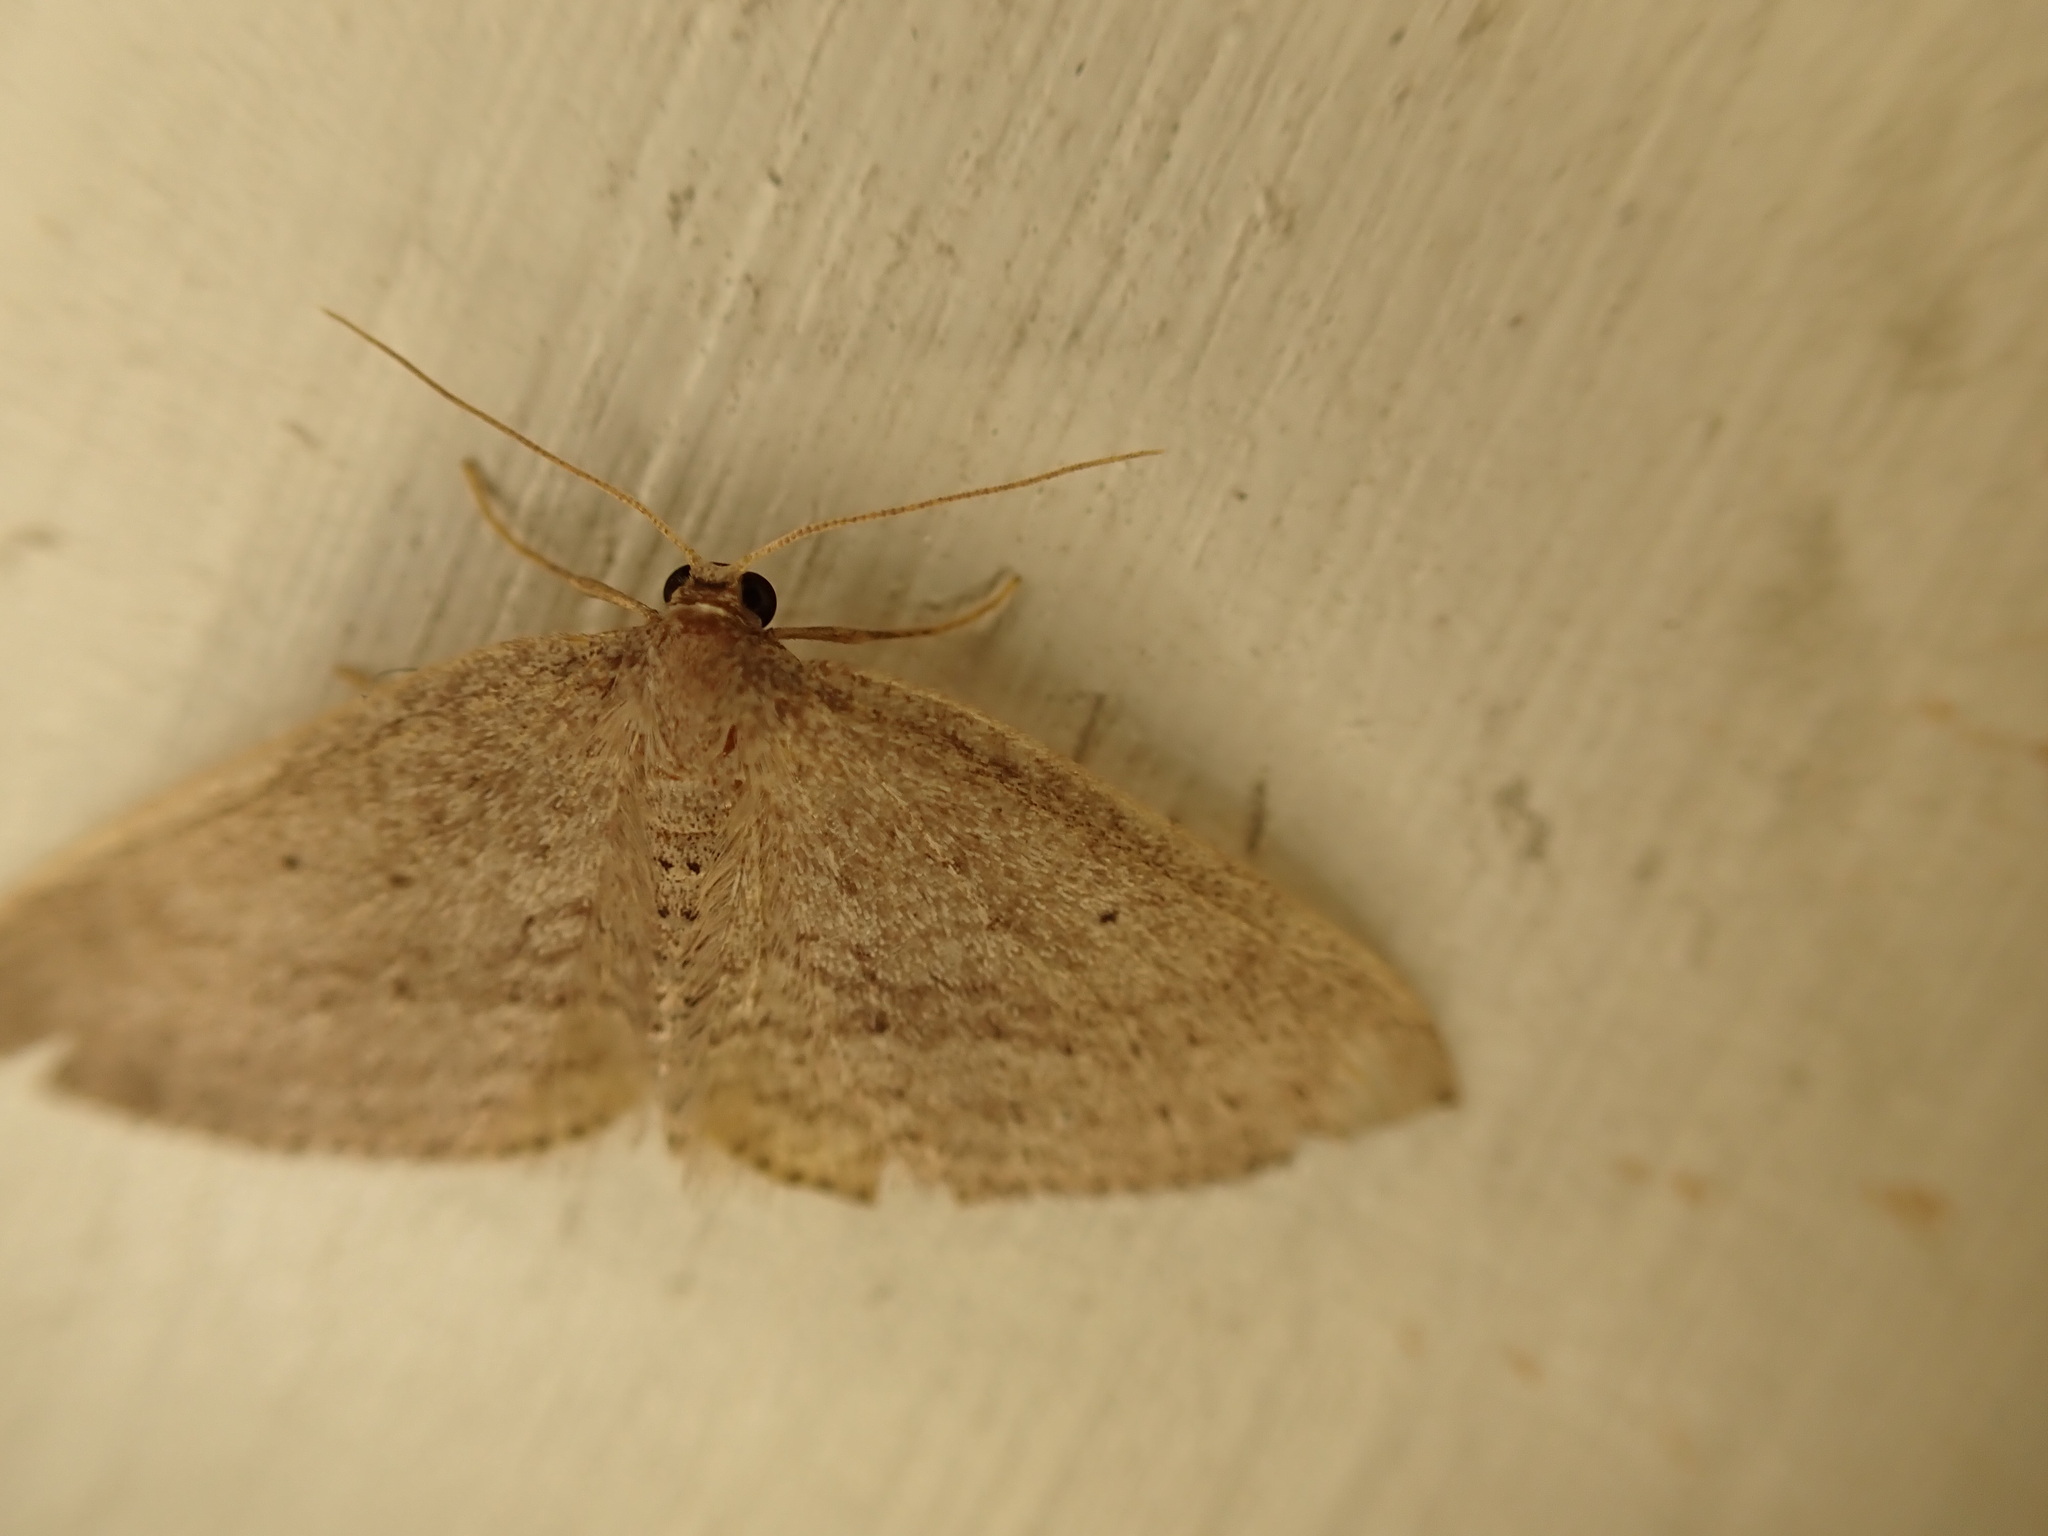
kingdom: Animalia
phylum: Arthropoda
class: Insecta
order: Lepidoptera
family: Geometridae
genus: Poecilasthena
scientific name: Poecilasthena schistaria
